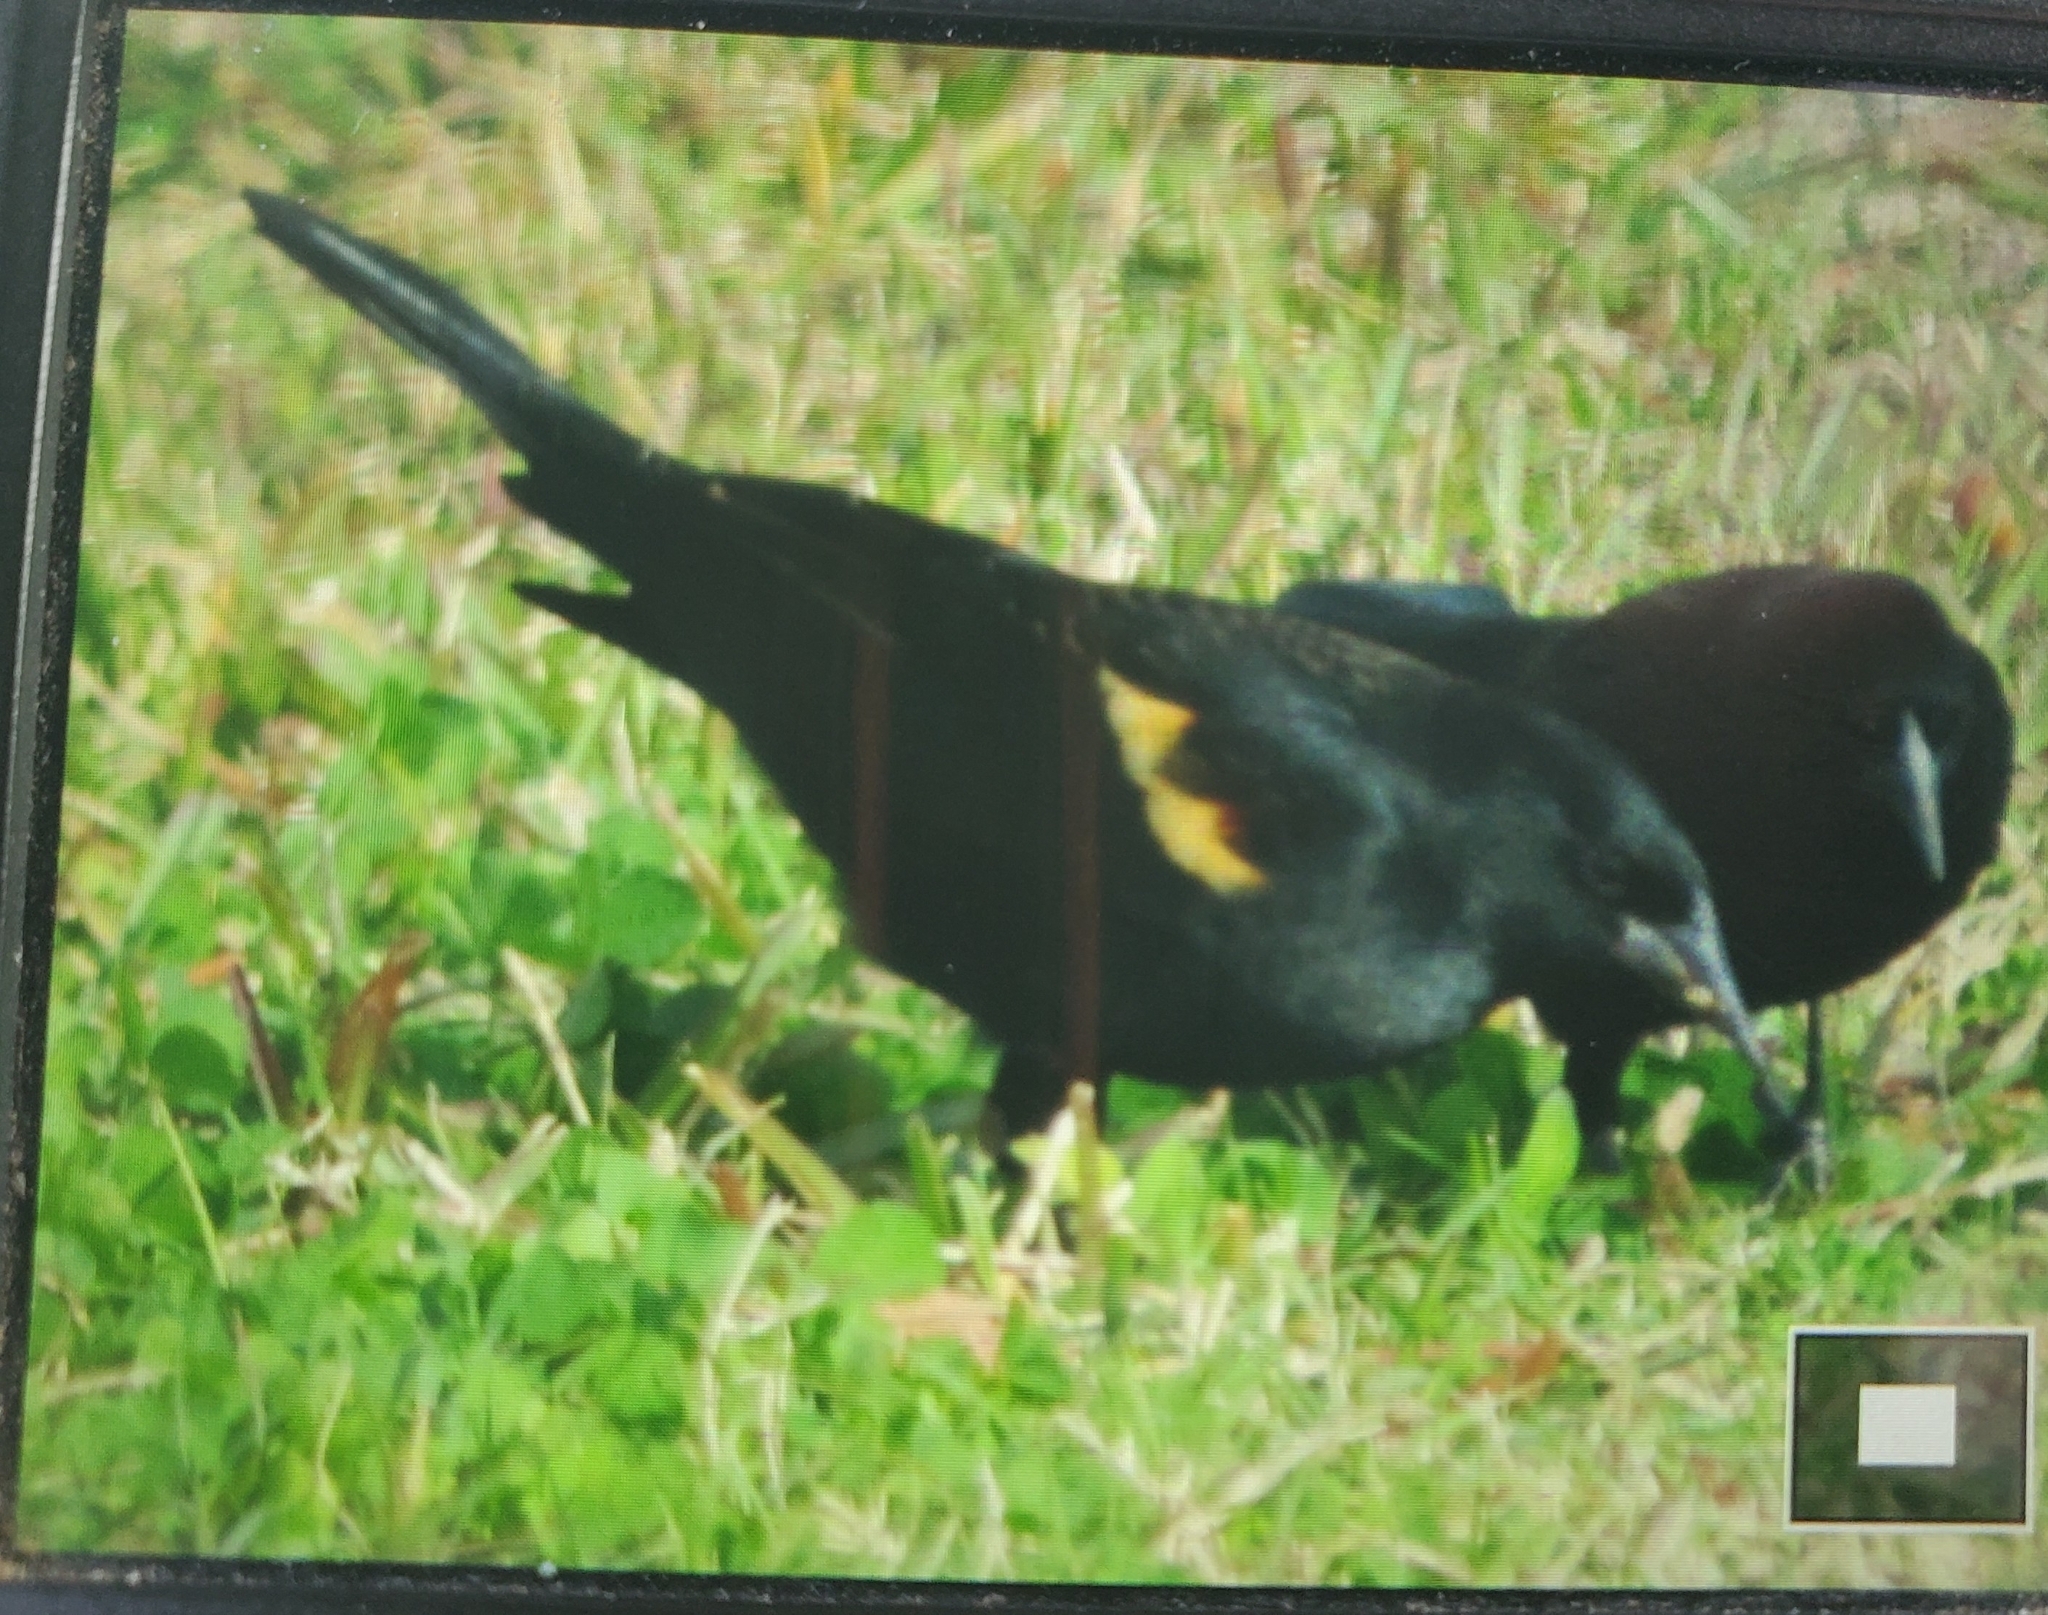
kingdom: Animalia
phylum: Chordata
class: Aves
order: Passeriformes
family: Icteridae
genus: Agelaius
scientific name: Agelaius phoeniceus
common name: Red-winged blackbird
